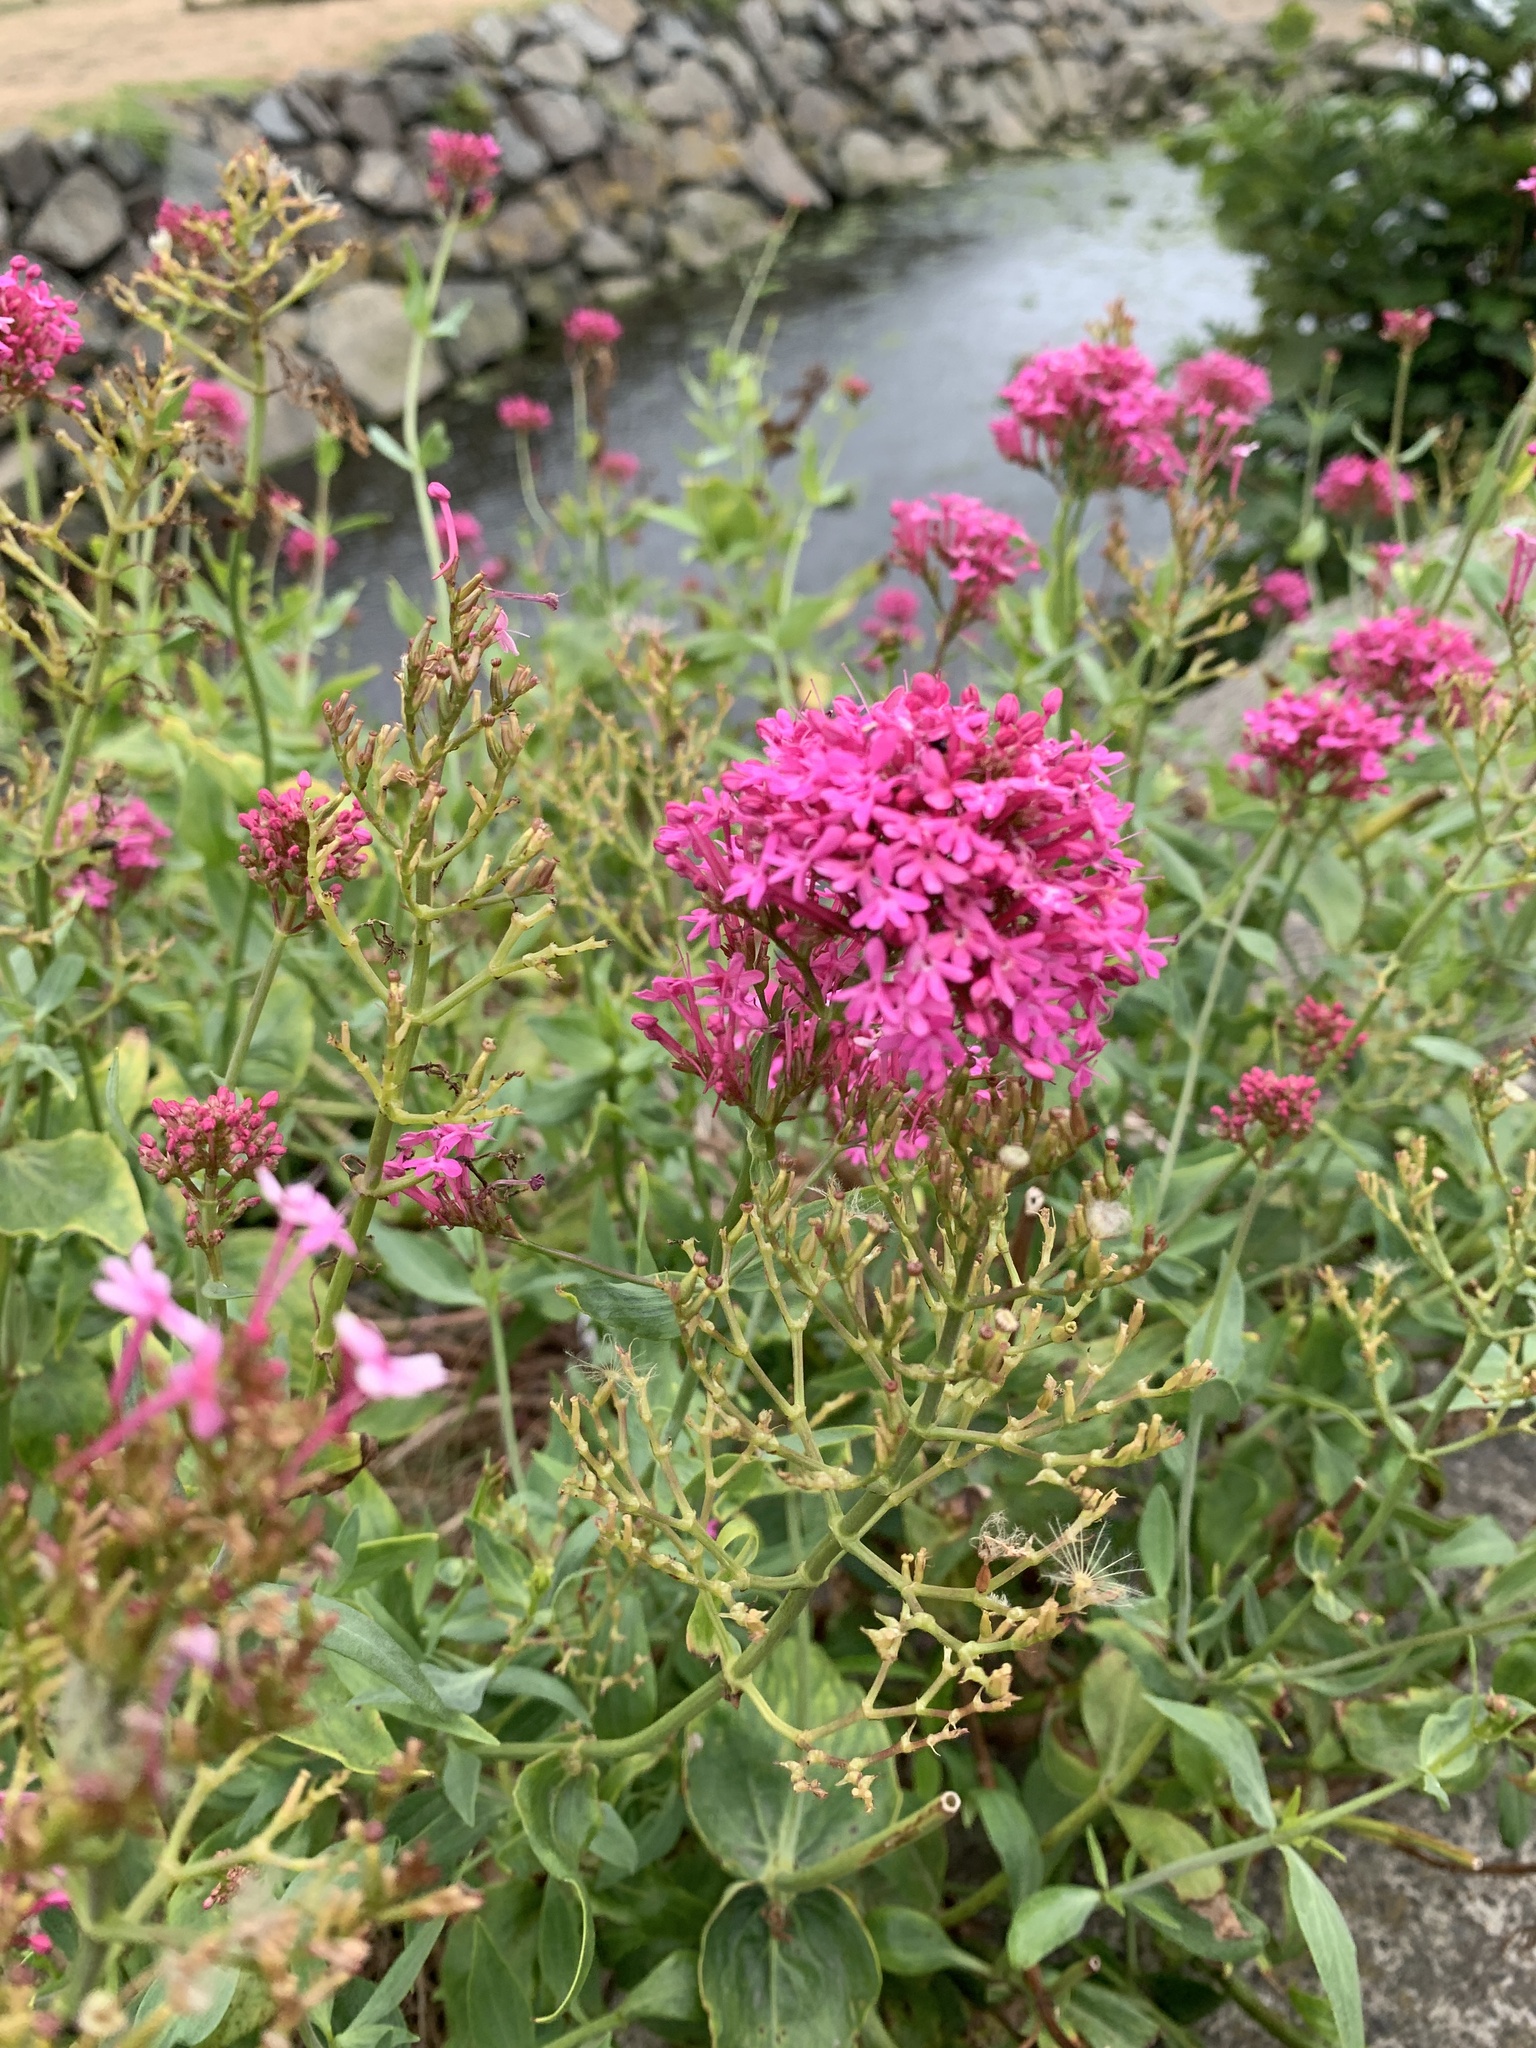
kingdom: Plantae
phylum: Tracheophyta
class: Magnoliopsida
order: Dipsacales
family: Caprifoliaceae
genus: Centranthus
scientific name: Centranthus ruber
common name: Red valerian
